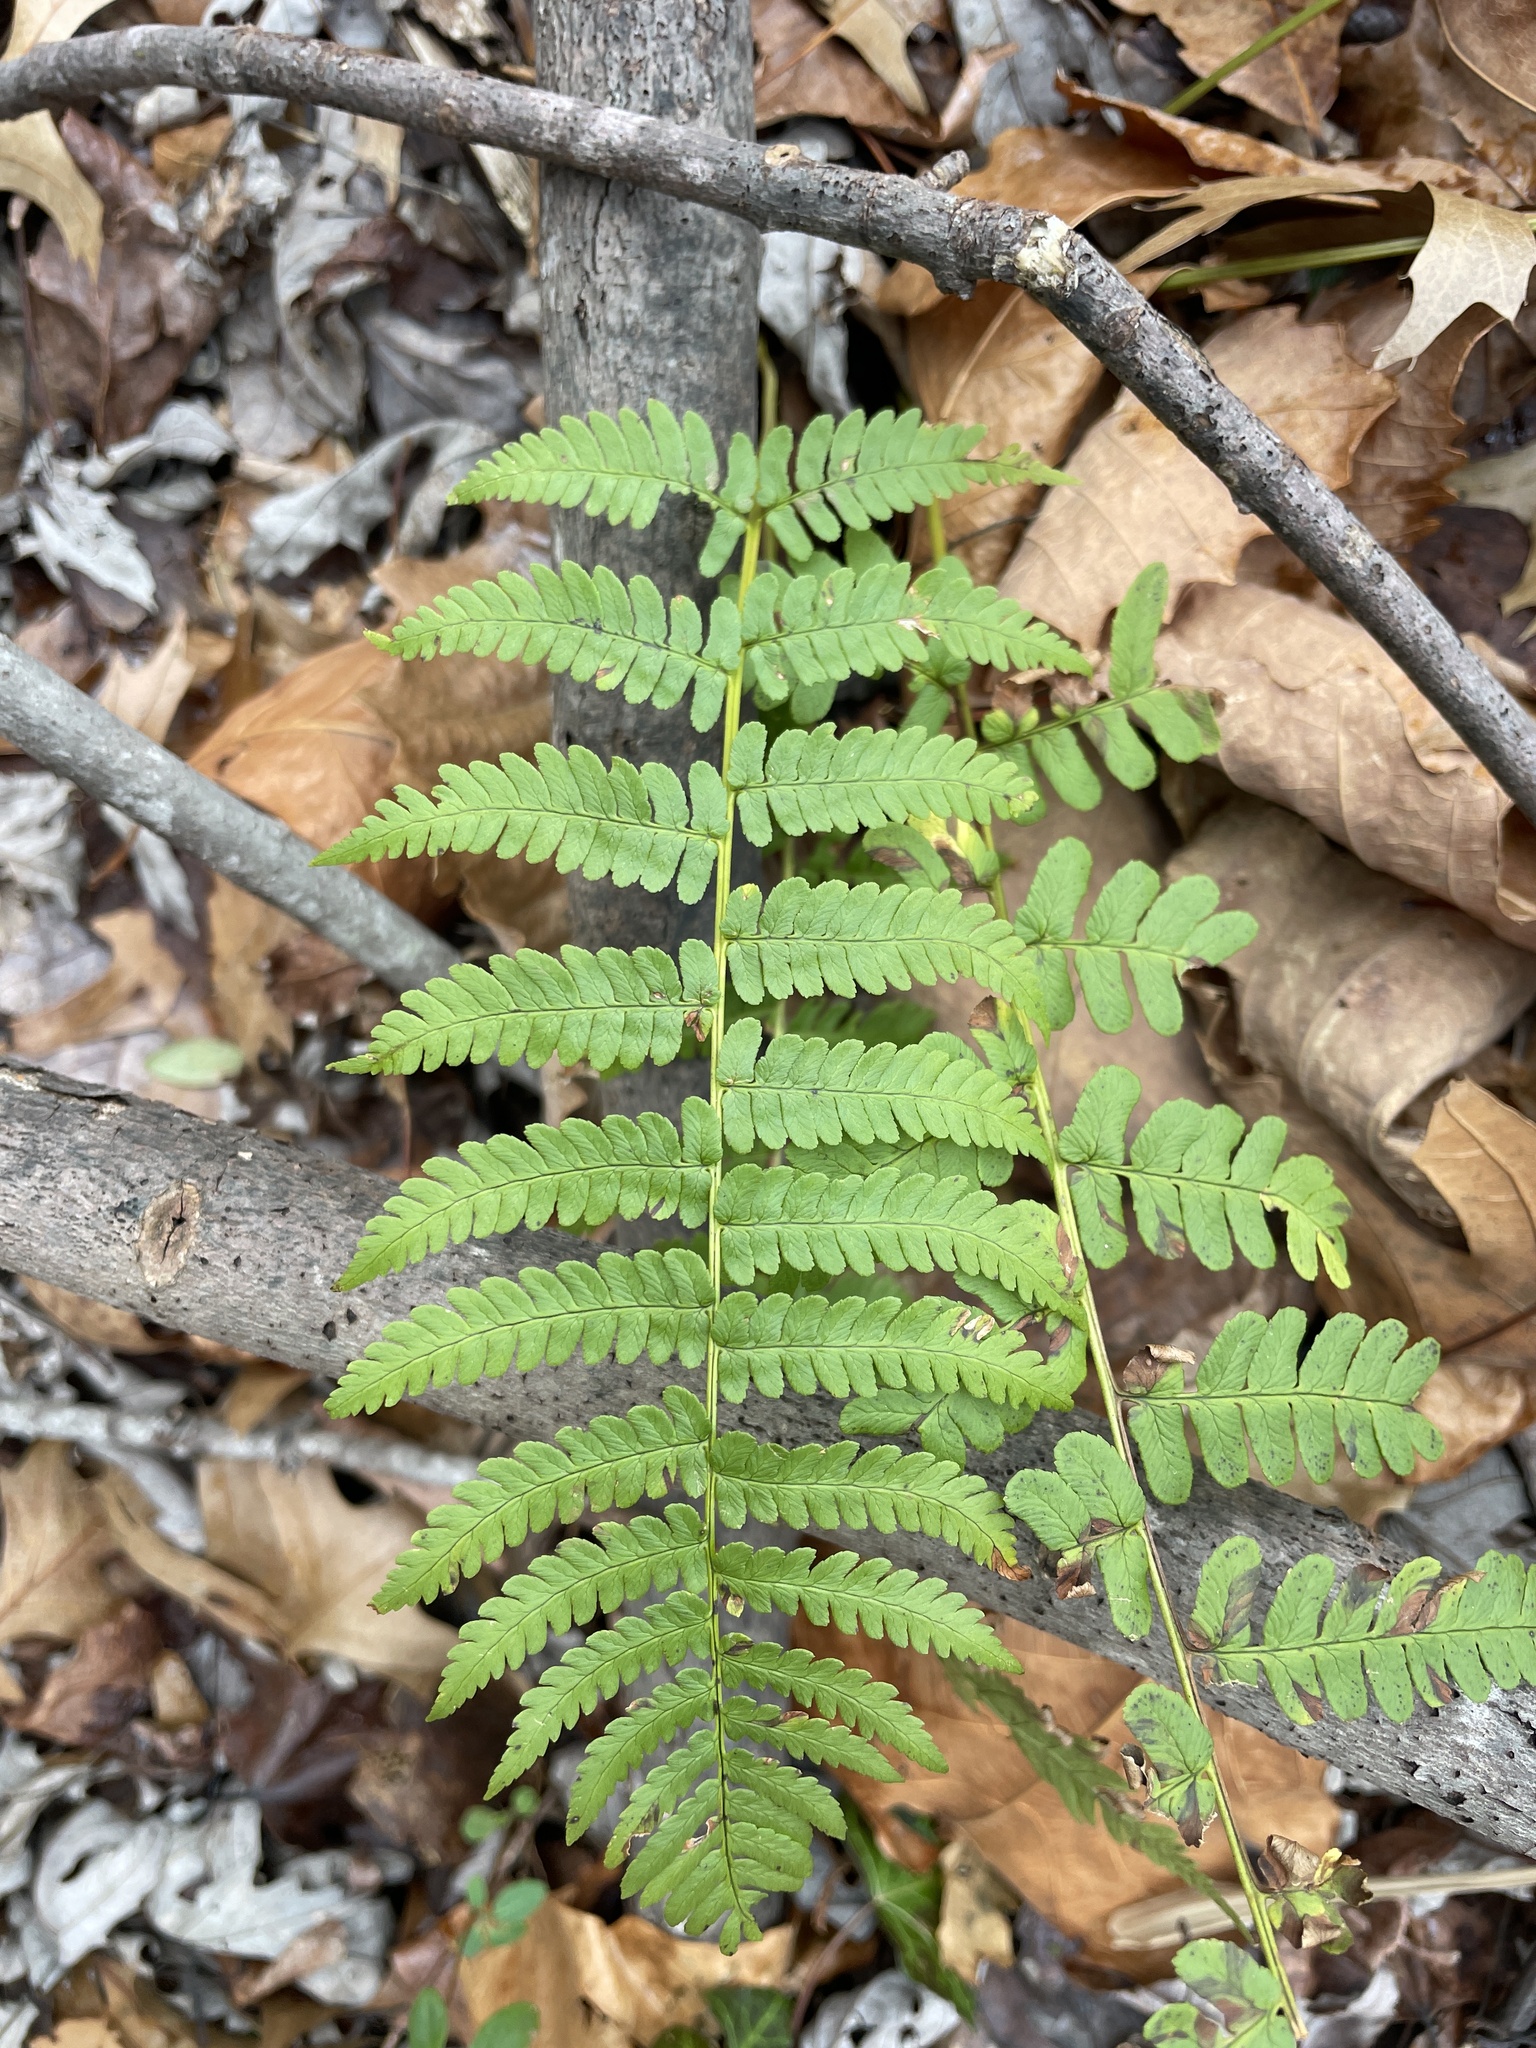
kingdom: Plantae
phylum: Tracheophyta
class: Polypodiopsida
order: Polypodiales
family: Dryopteridaceae
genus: Dryopteris
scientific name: Dryopteris marginalis
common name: Marginal wood fern
